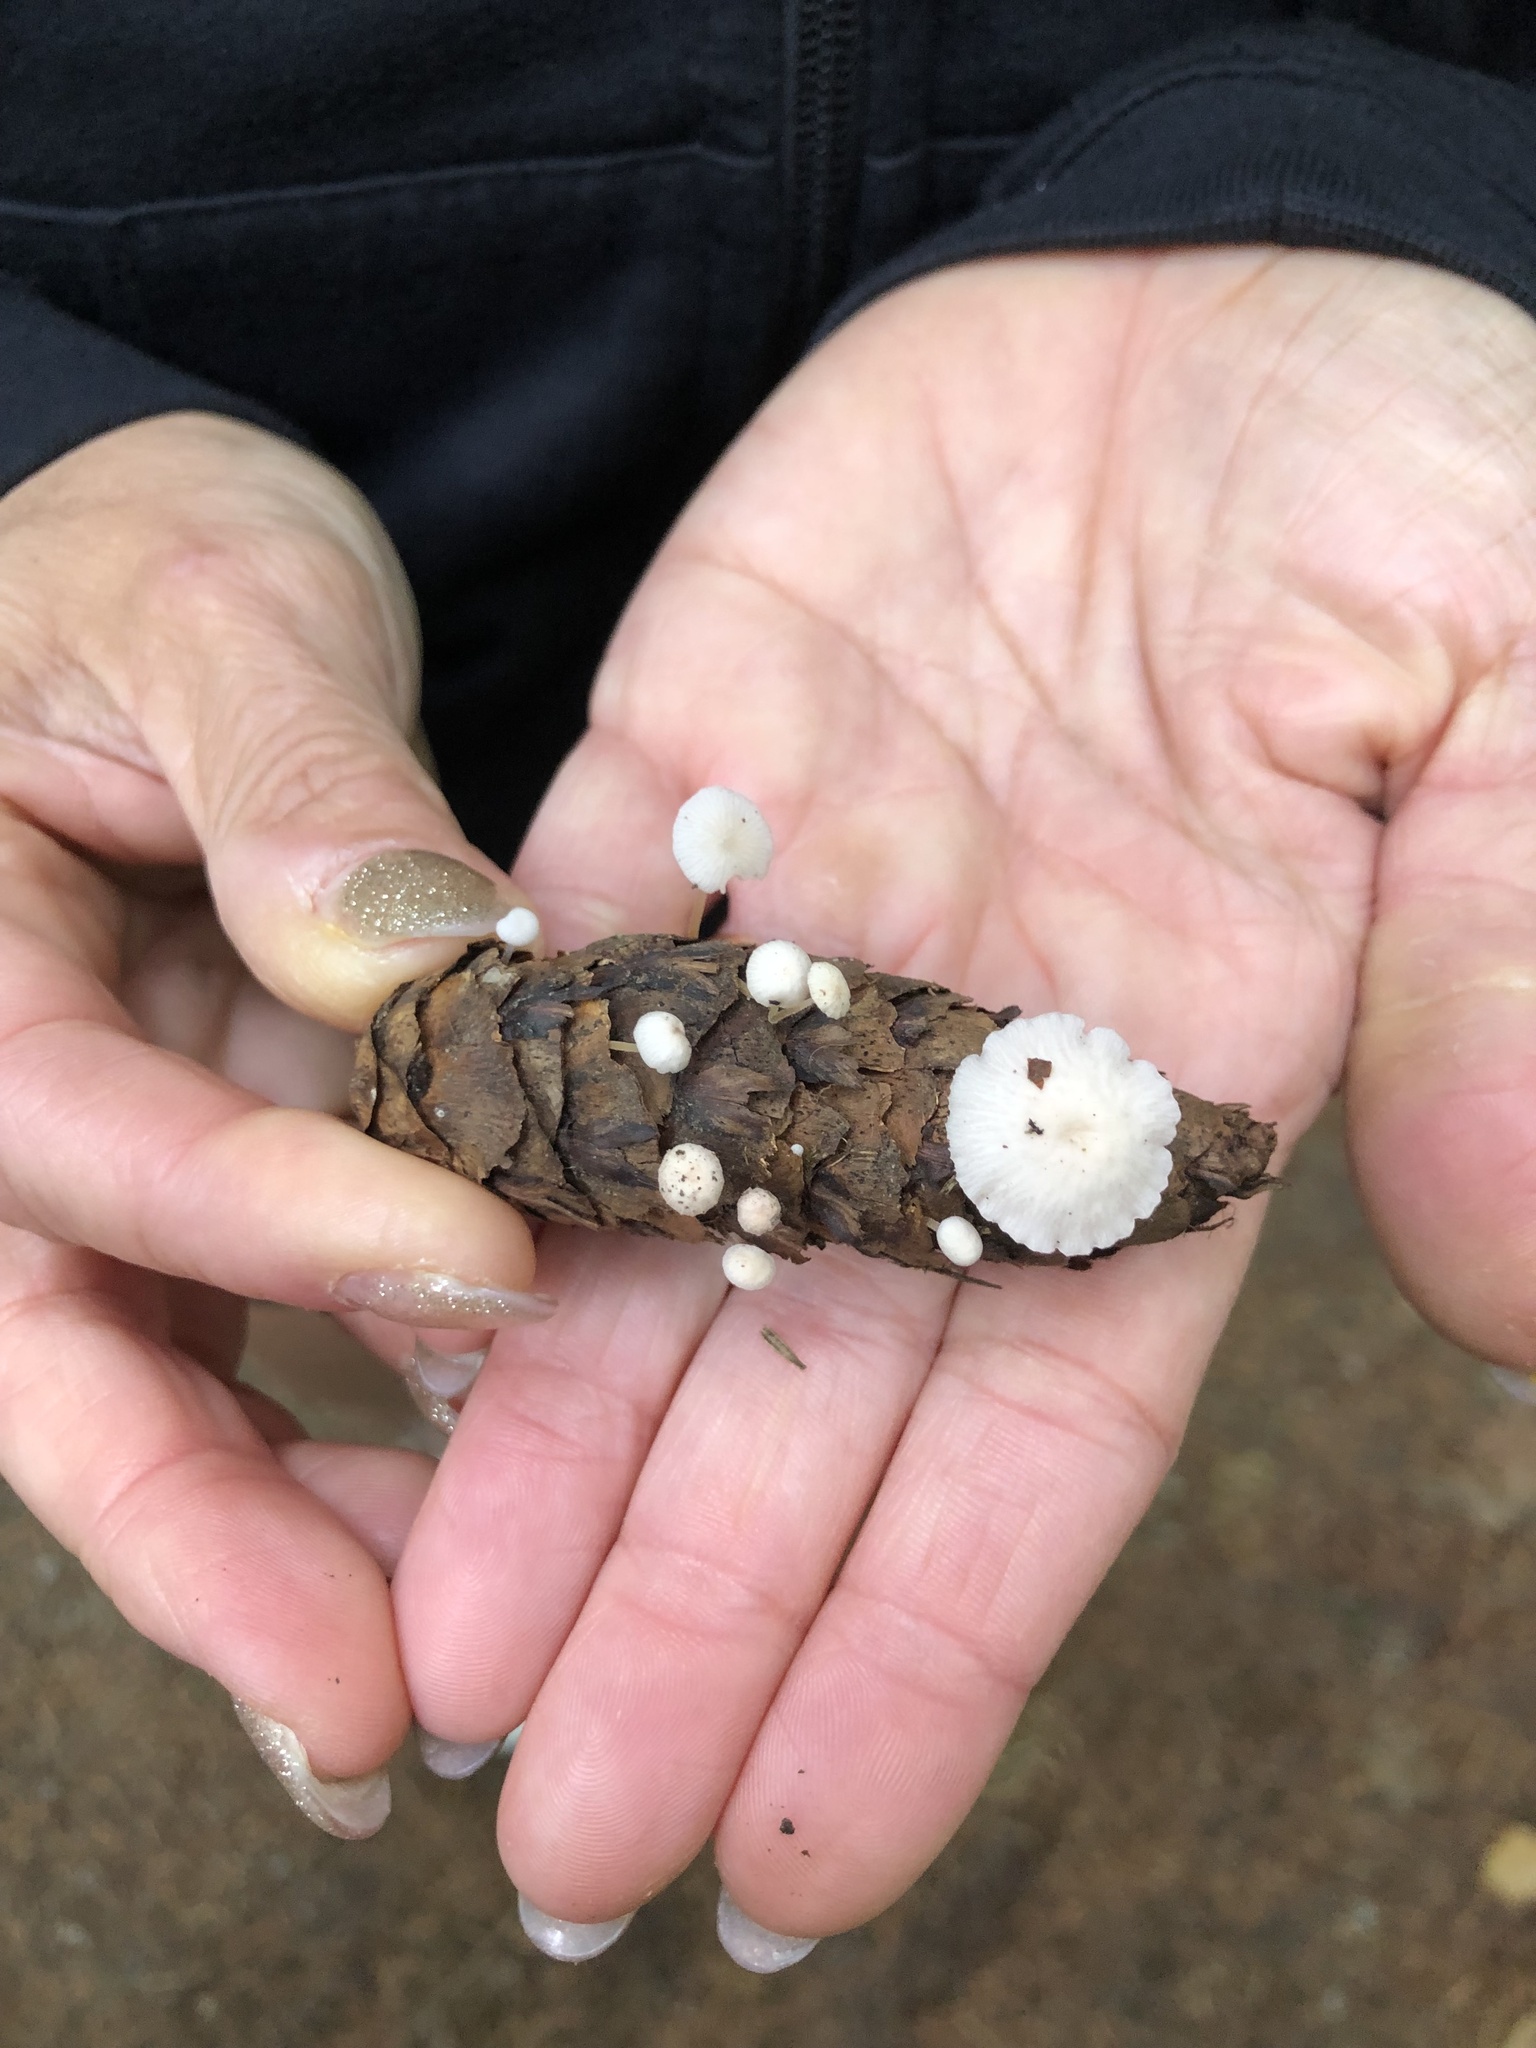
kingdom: Fungi
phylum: Basidiomycota
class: Agaricomycetes
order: Agaricales
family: Physalacriaceae
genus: Strobilurus
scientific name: Strobilurus trullisatus
